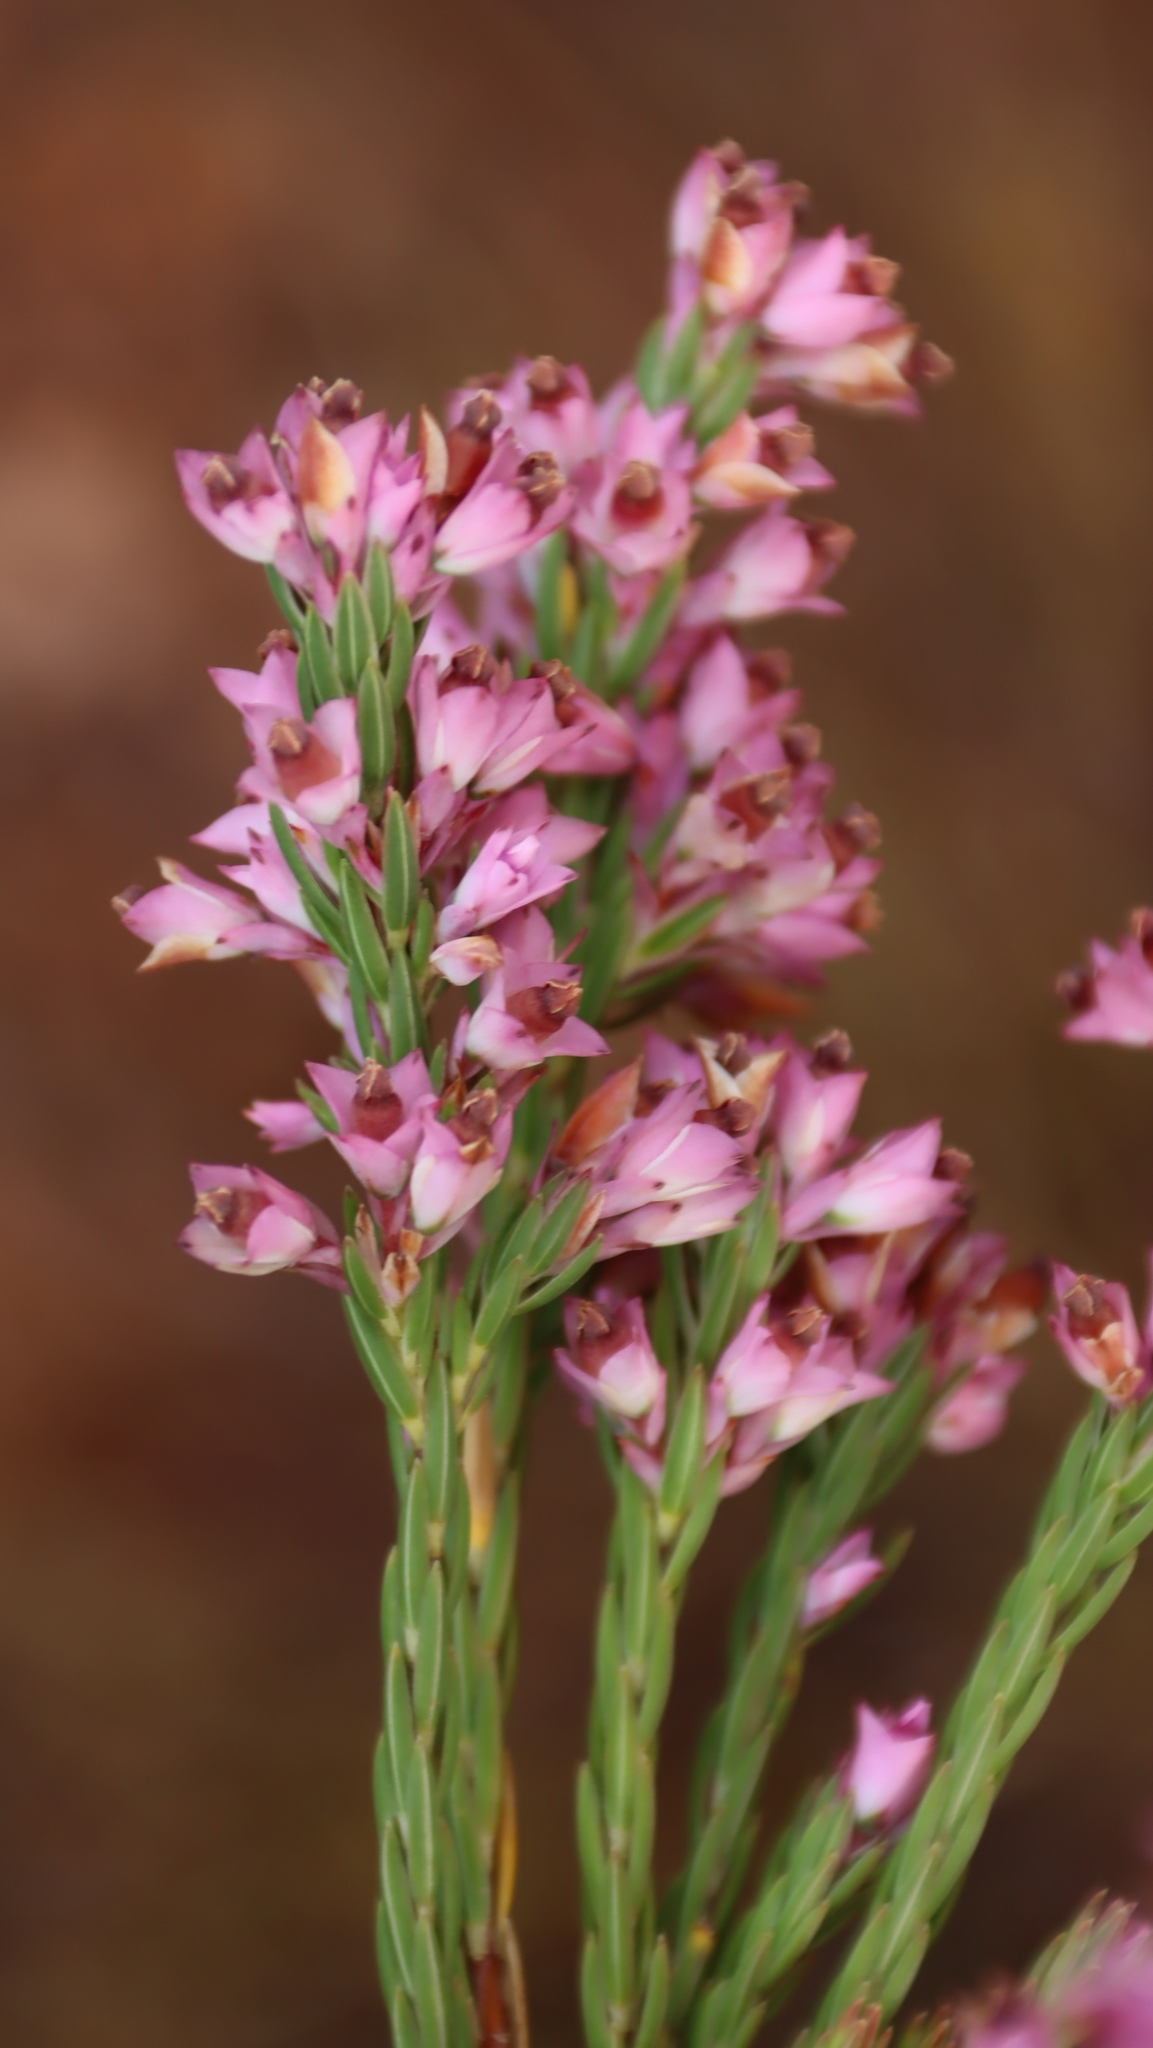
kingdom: Plantae
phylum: Tracheophyta
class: Magnoliopsida
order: Ericales
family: Ericaceae
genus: Erica
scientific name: Erica corifolia
